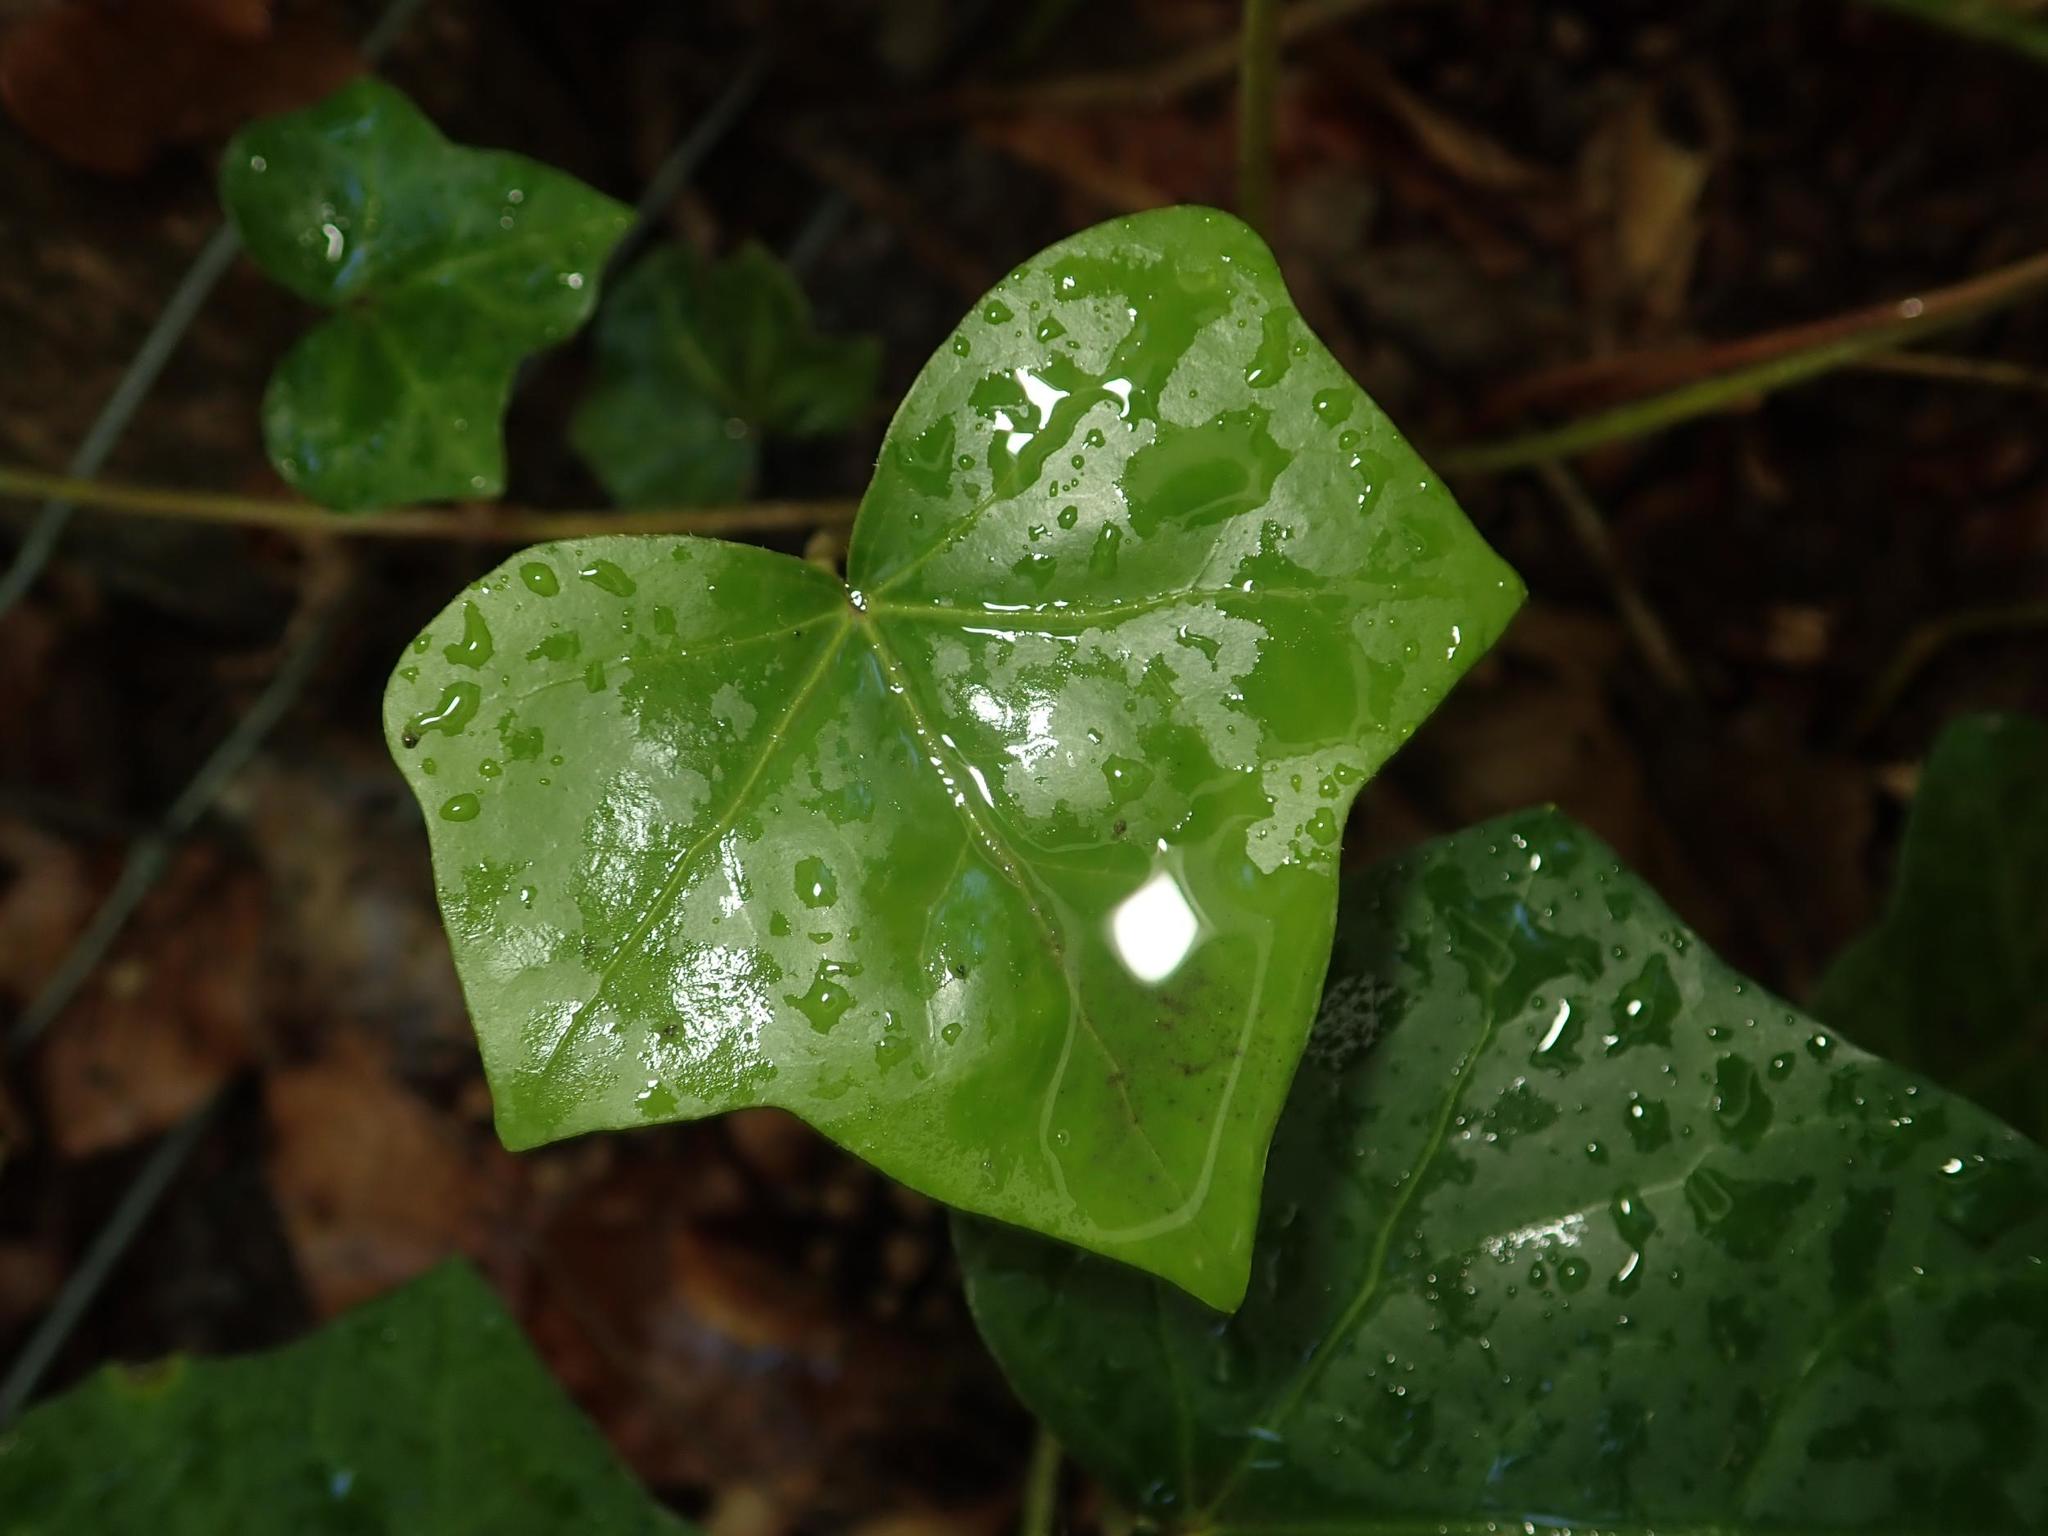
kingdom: Plantae
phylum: Tracheophyta
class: Magnoliopsida
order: Apiales
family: Araliaceae
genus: Hedera
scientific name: Hedera helix
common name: Ivy
